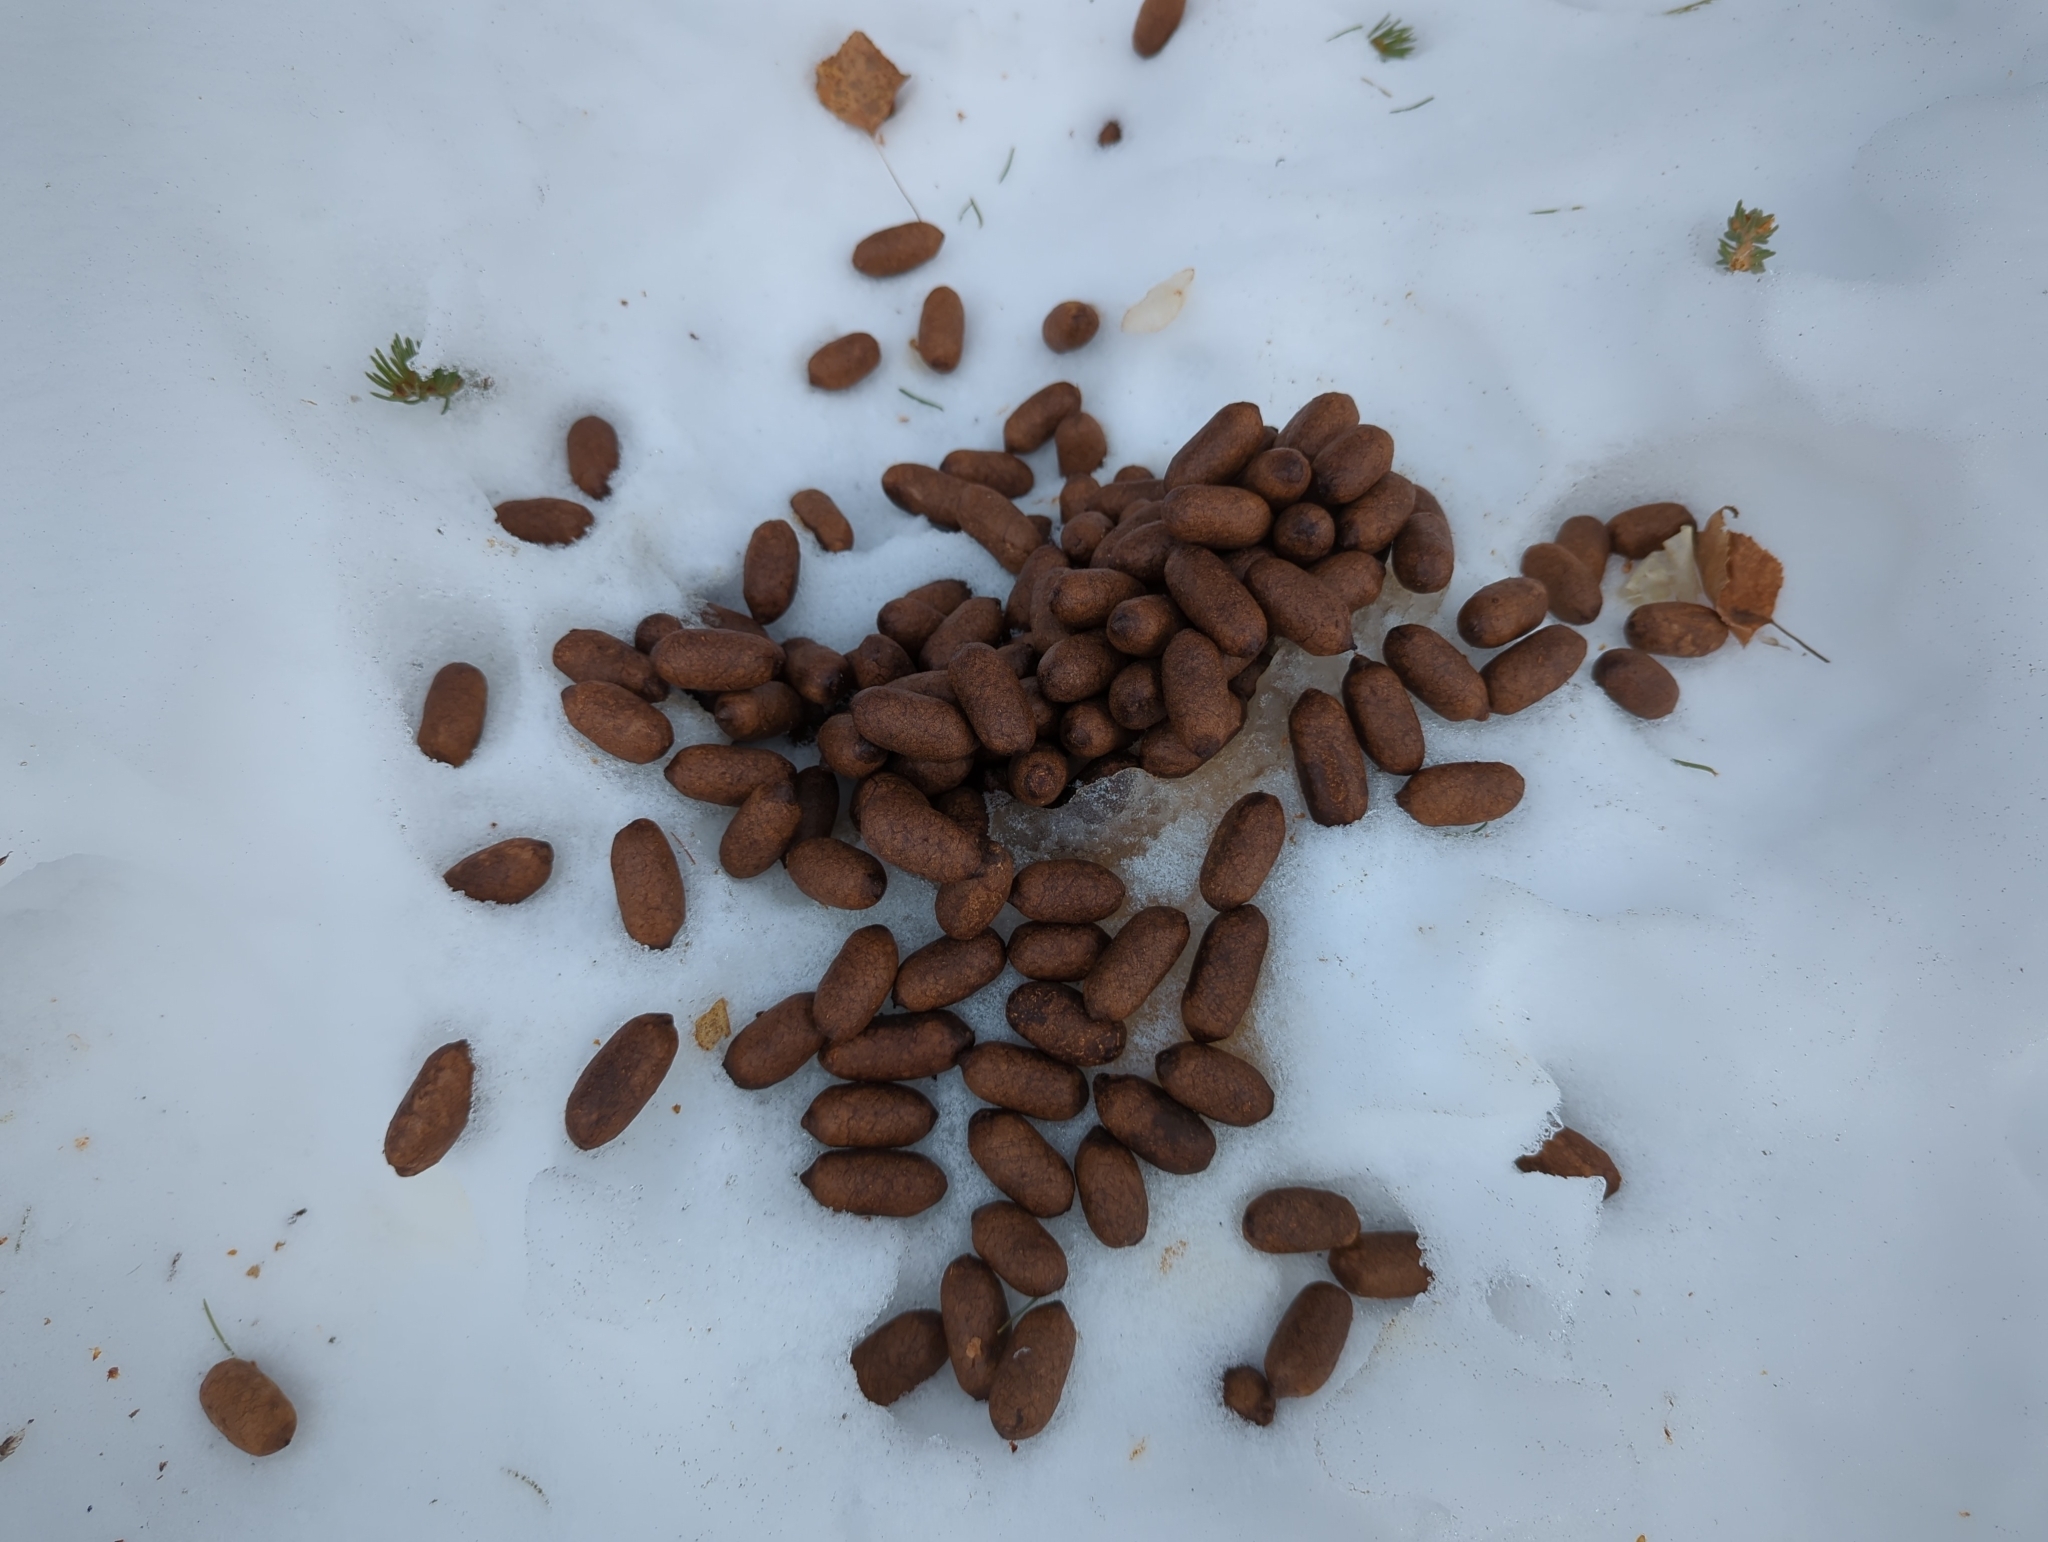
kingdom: Animalia
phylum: Chordata
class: Mammalia
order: Artiodactyla
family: Cervidae
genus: Alces
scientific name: Alces alces
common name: Moose
